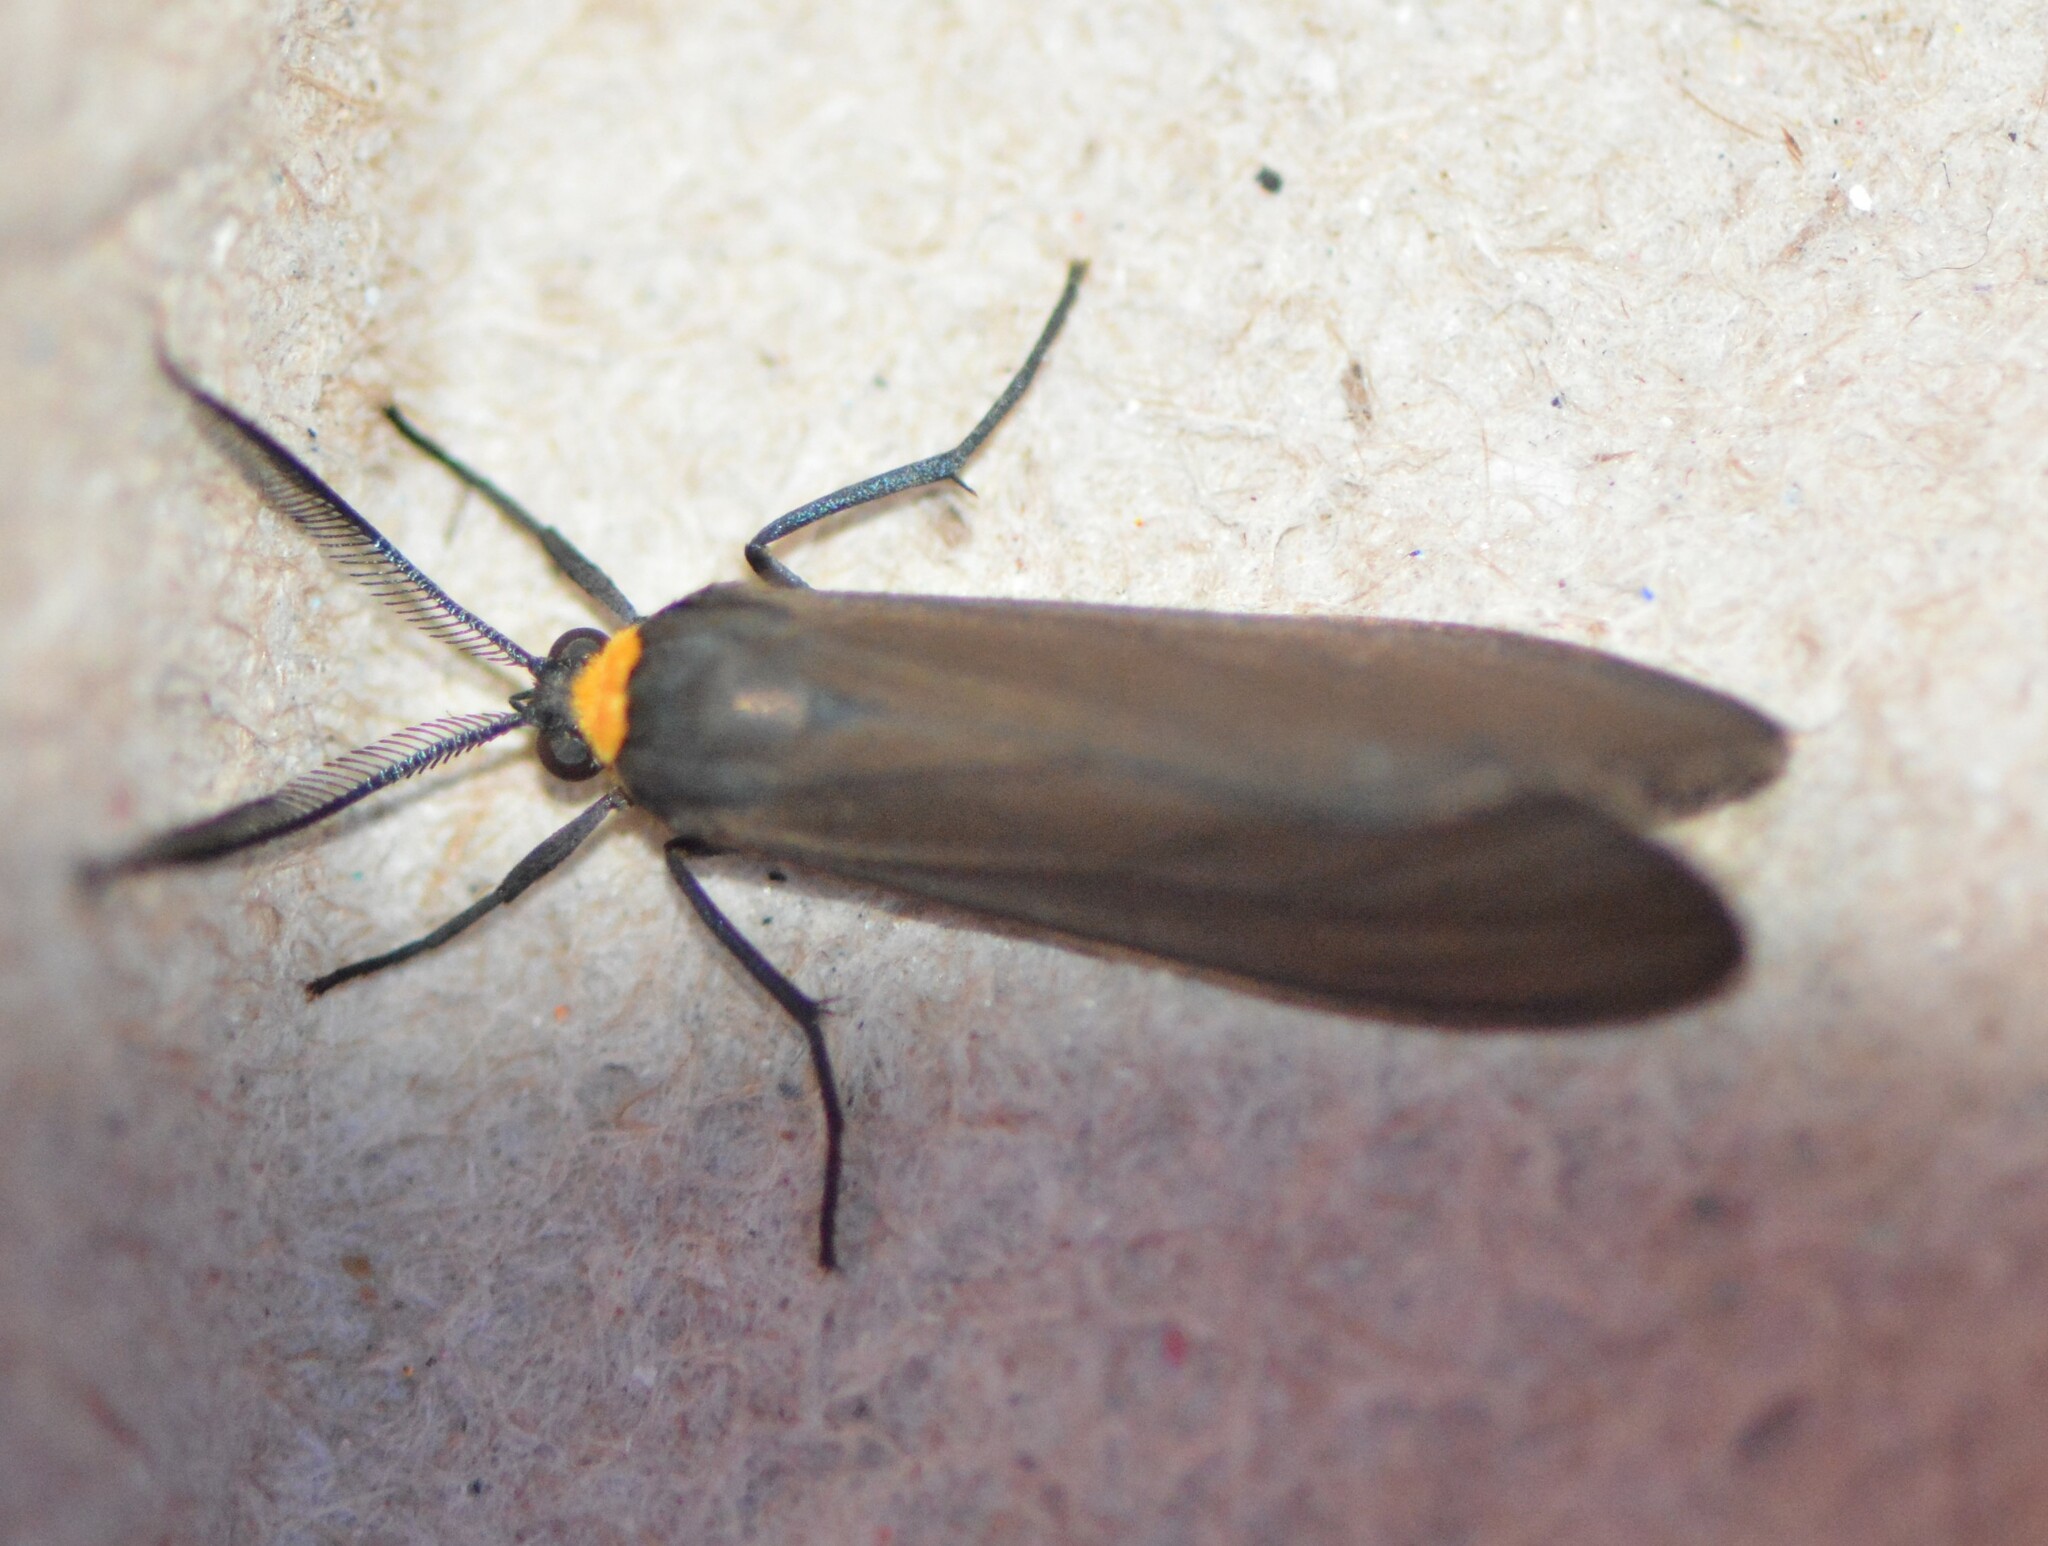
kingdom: Animalia
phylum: Arthropoda
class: Insecta
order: Lepidoptera
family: Erebidae
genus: Cisseps
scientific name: Cisseps fulvicollis
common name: Yellow-collared scape moth
